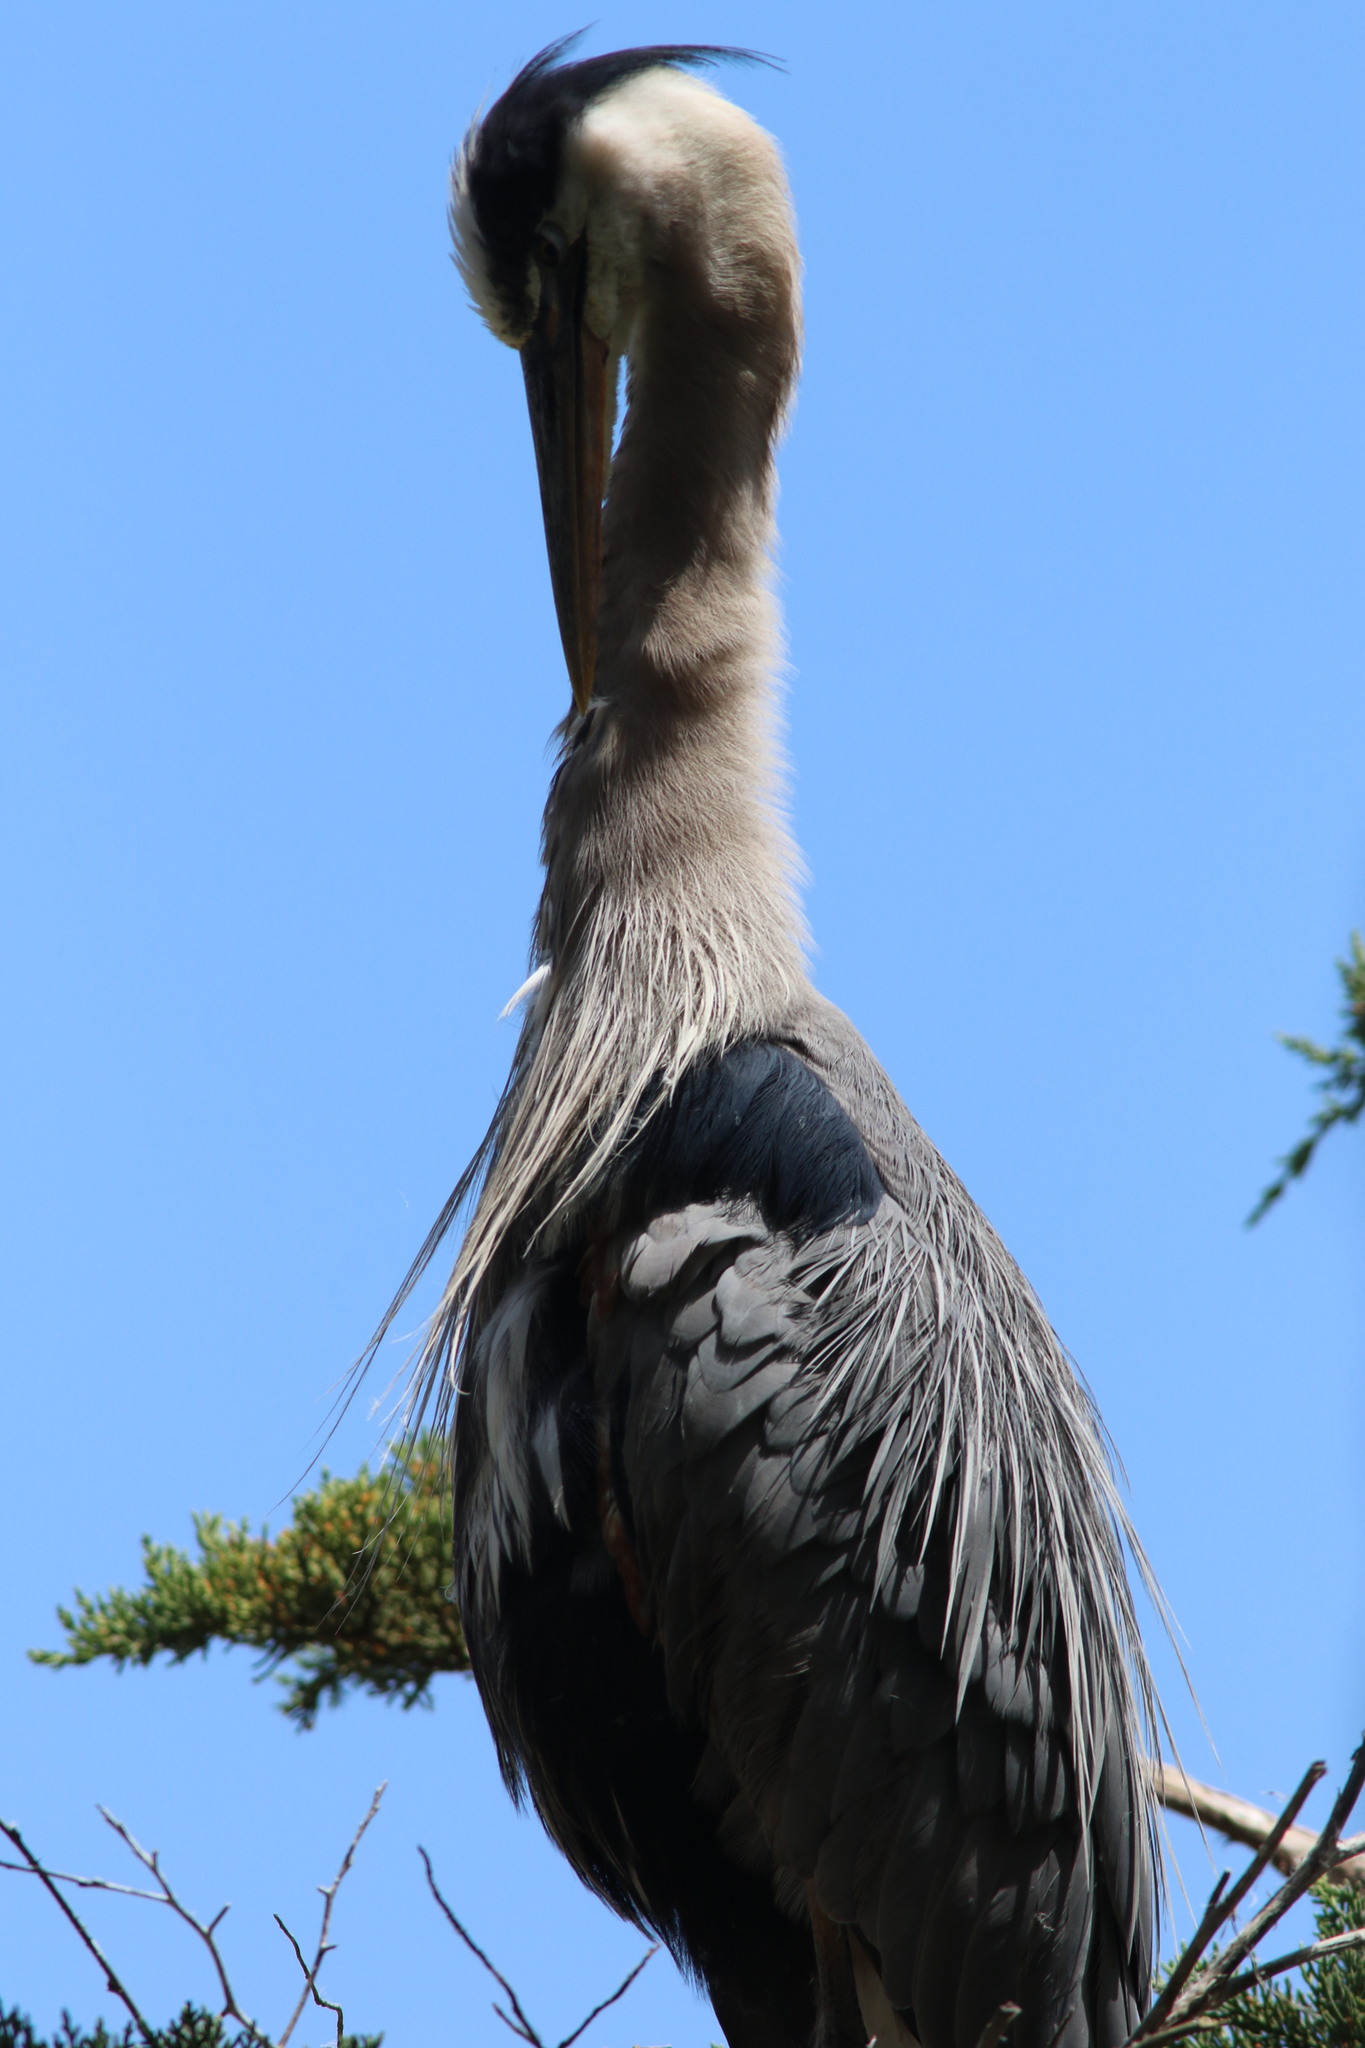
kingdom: Animalia
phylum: Chordata
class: Aves
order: Pelecaniformes
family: Ardeidae
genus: Ardea
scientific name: Ardea herodias
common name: Great blue heron
